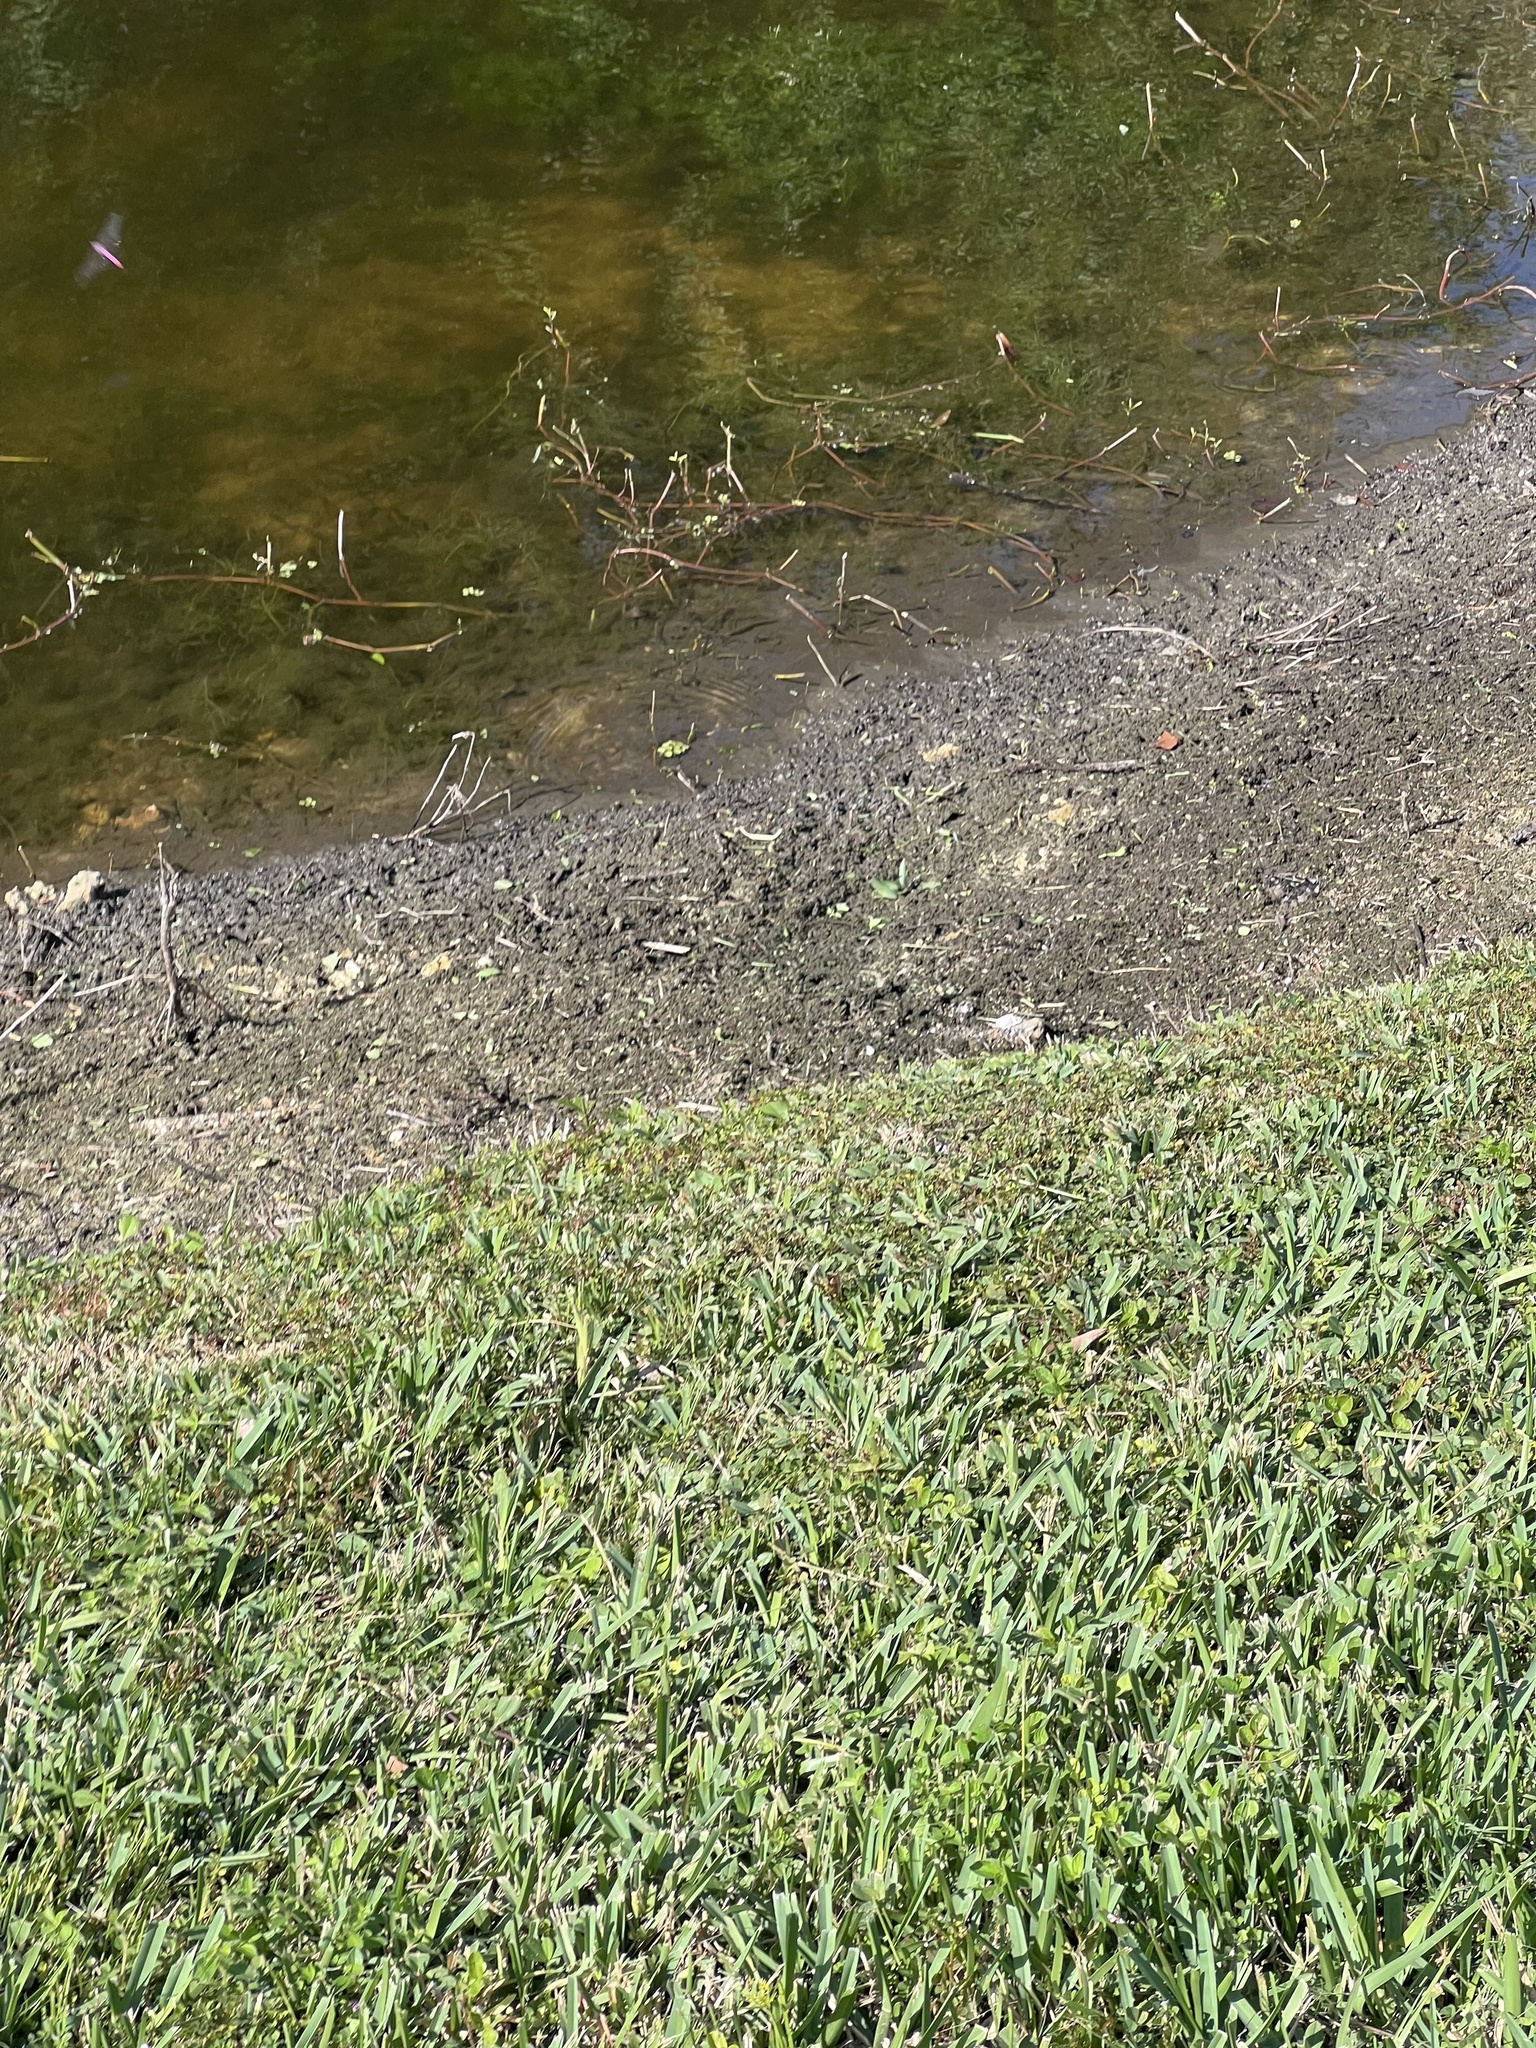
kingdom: Animalia
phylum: Arthropoda
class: Insecta
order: Odonata
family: Libellulidae
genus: Orthemis
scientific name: Orthemis ferruginea
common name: Roseate skimmer
